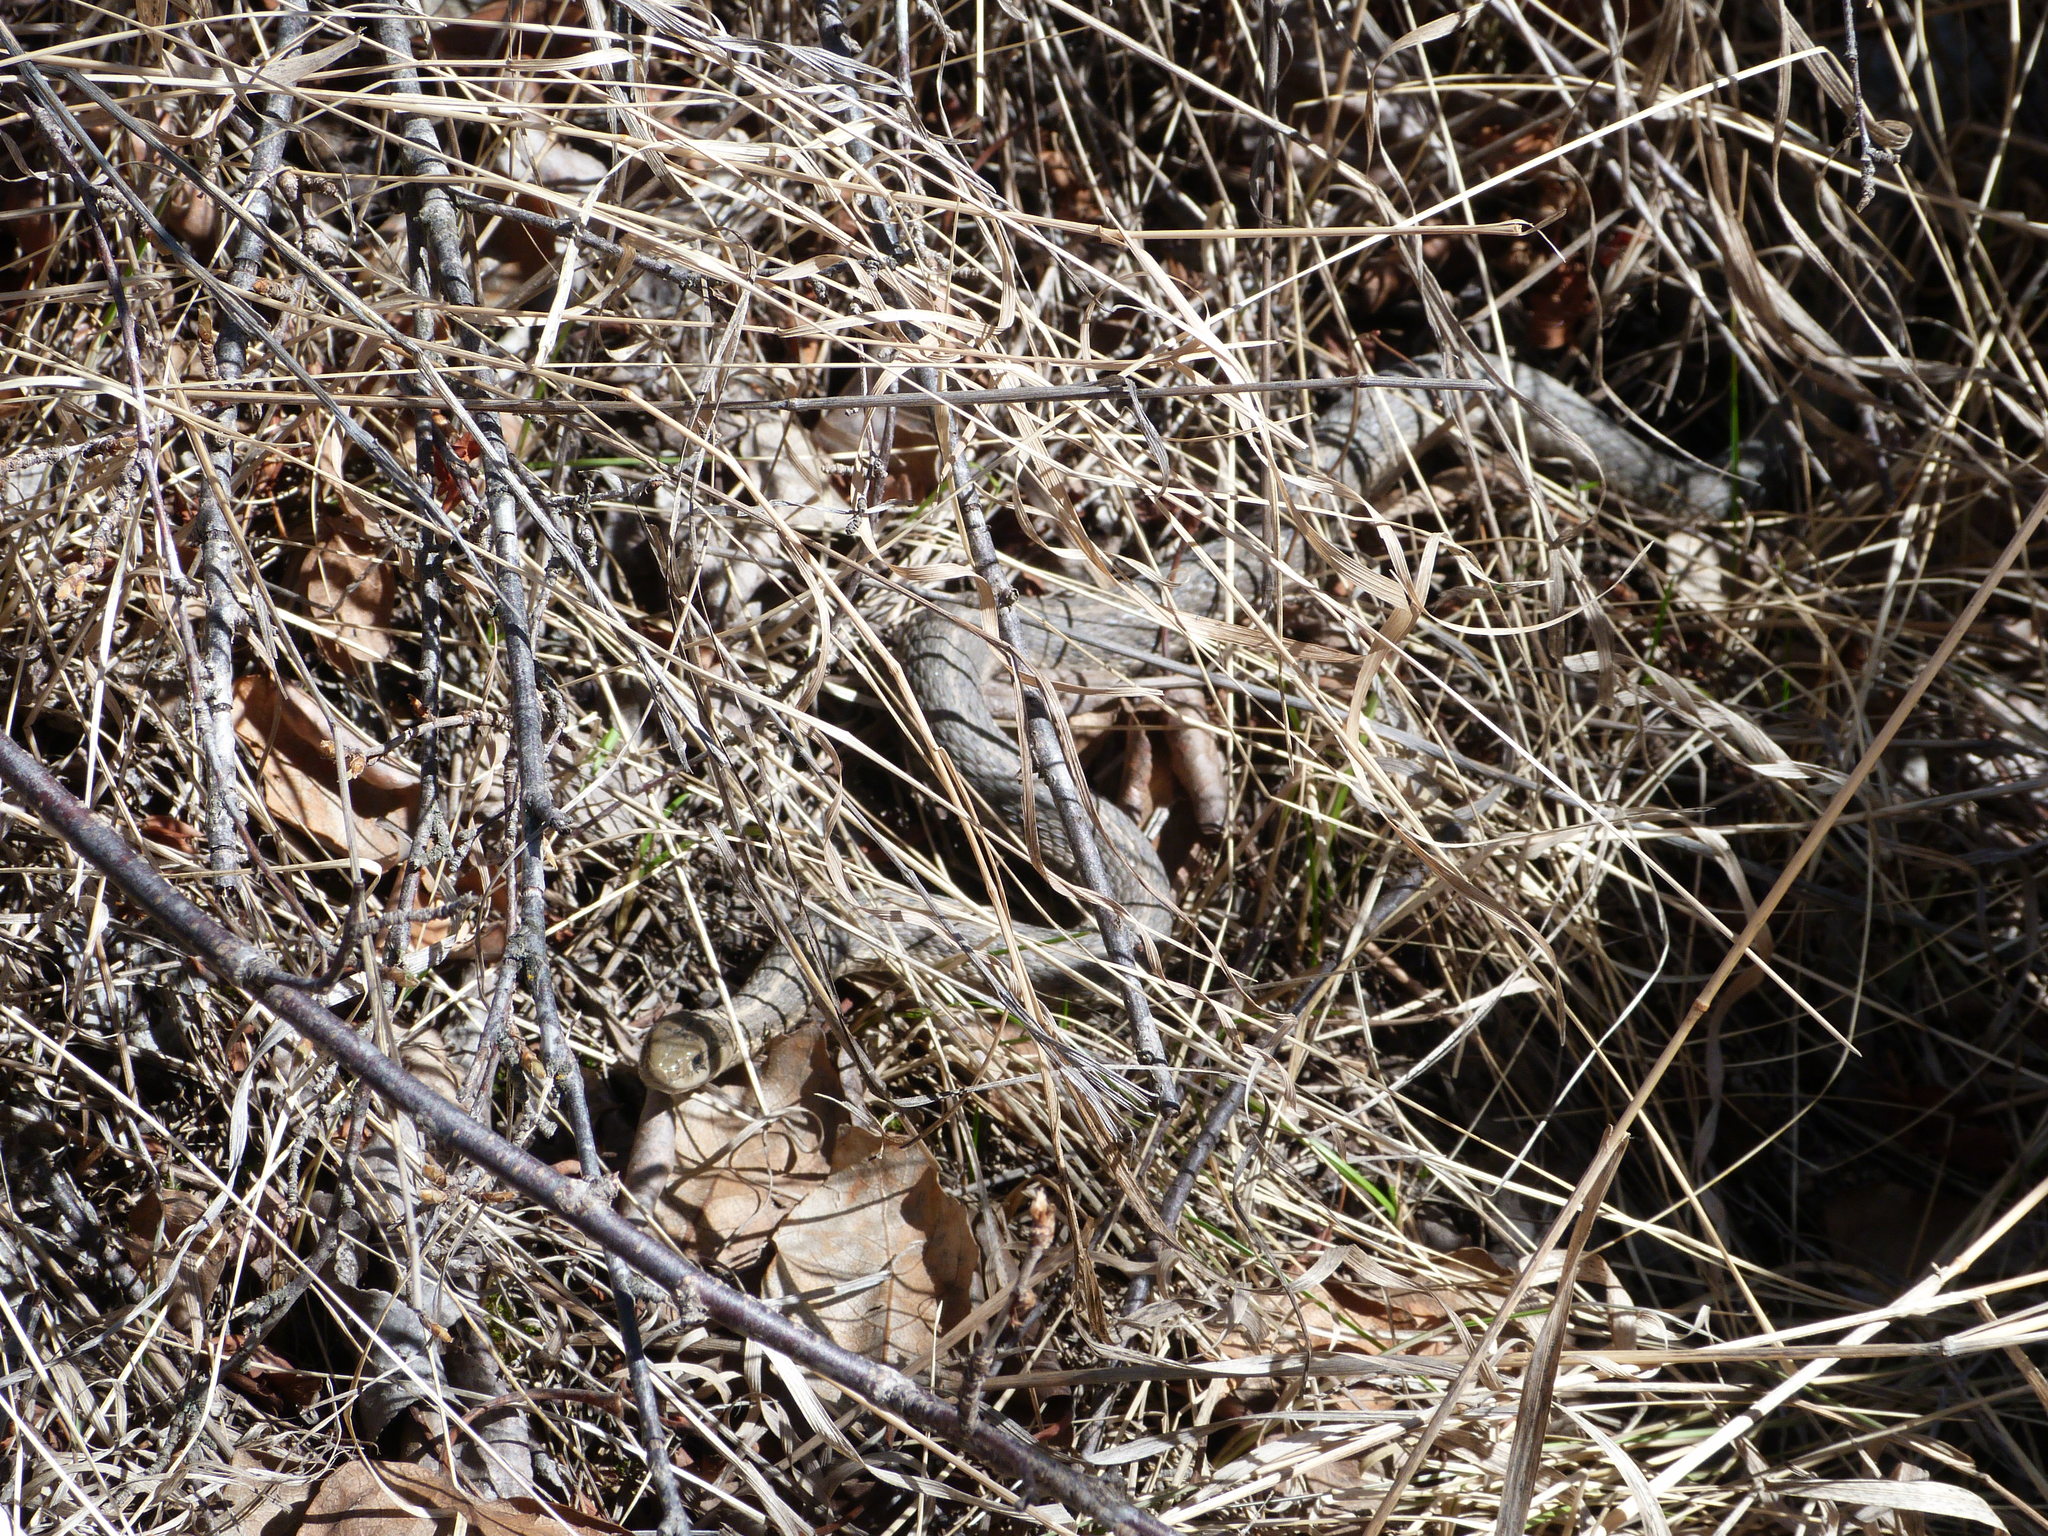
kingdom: Animalia
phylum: Chordata
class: Squamata
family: Colubridae
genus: Thamnophis
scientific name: Thamnophis elegans
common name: Western terrestrial garter snake
